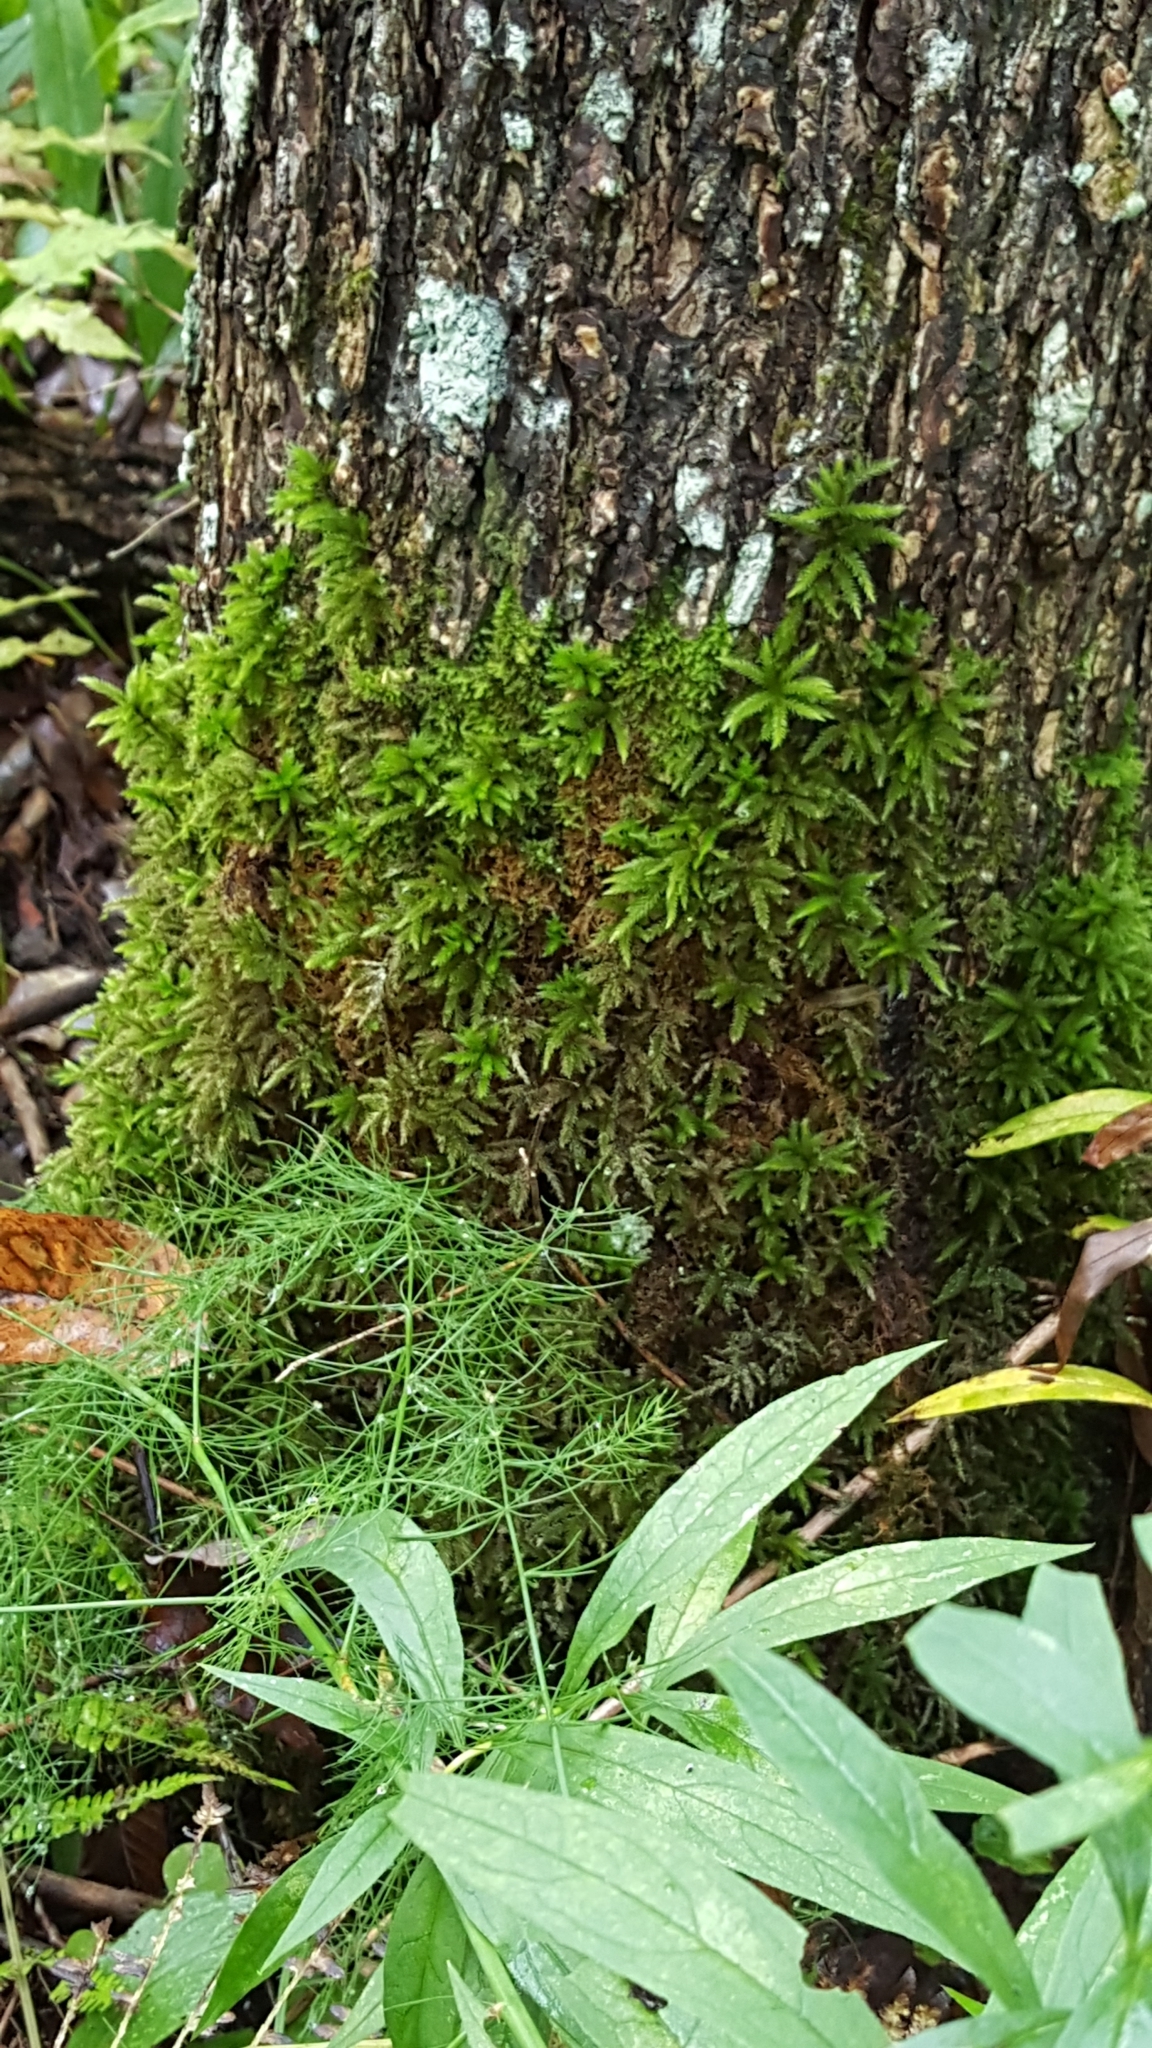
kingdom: Plantae
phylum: Bryophyta
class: Bryopsida
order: Hypnales
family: Climaciaceae
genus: Climacium
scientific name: Climacium
